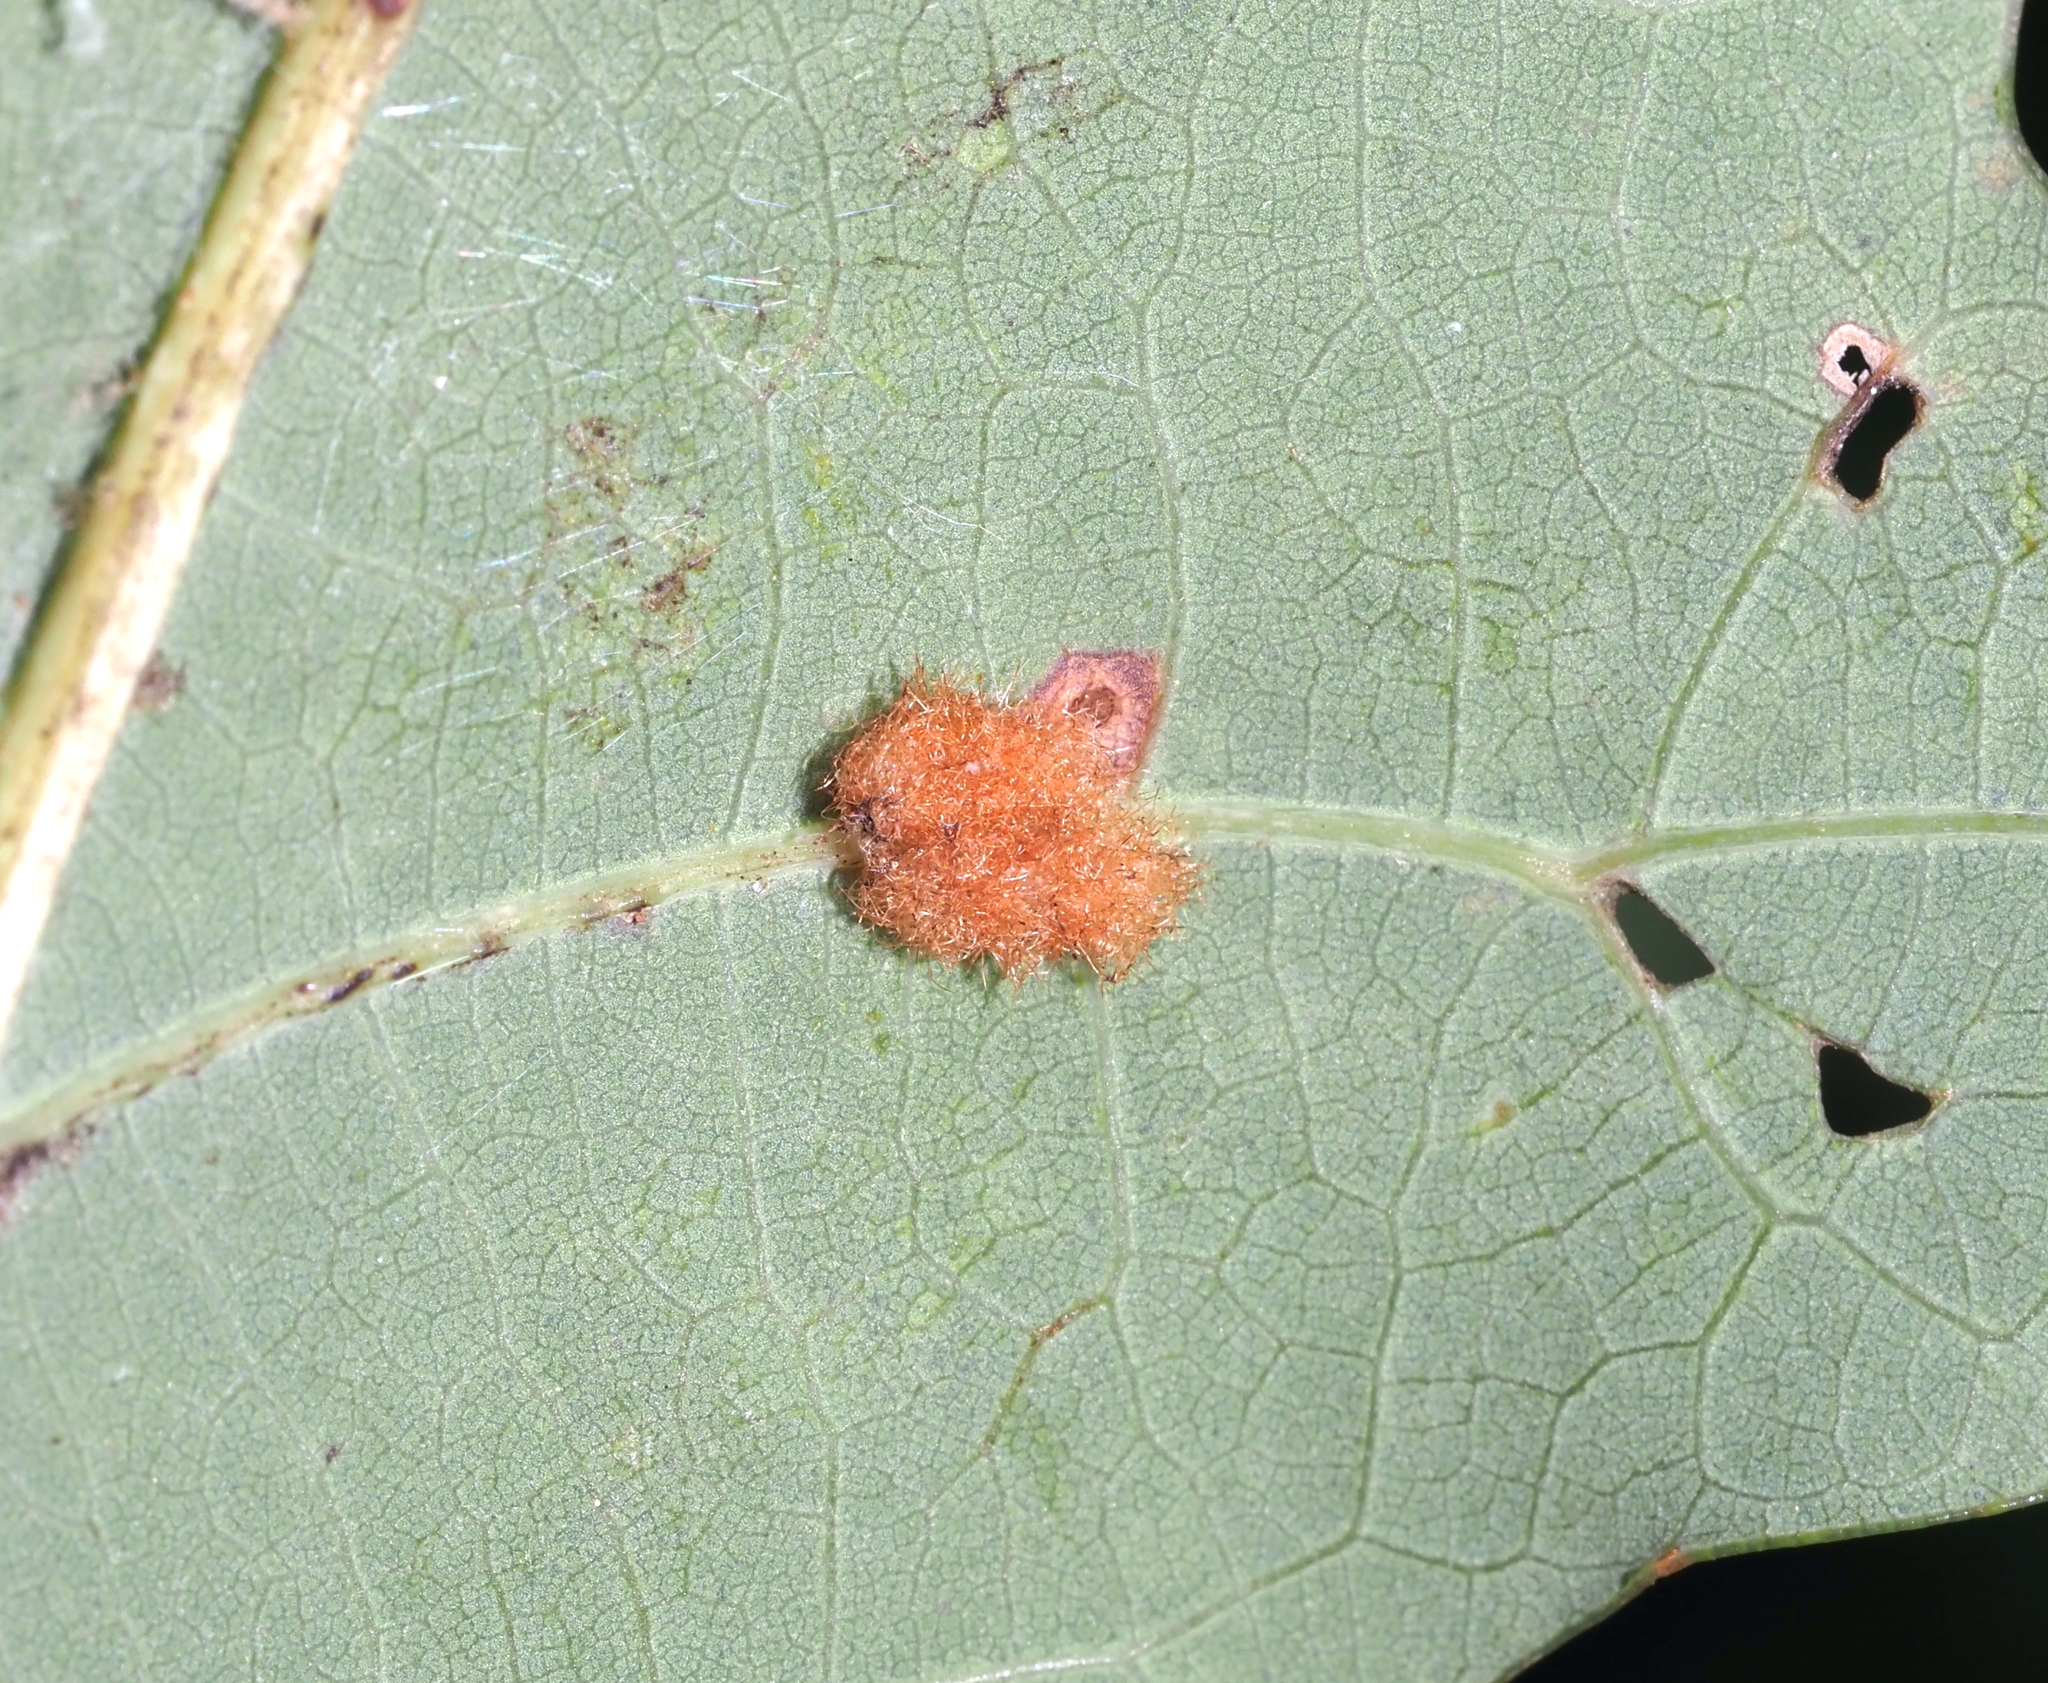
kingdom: Animalia
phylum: Arthropoda
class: Insecta
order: Hymenoptera
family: Cynipidae
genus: Neuroterus
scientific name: Neuroterus quercusverrucarum
